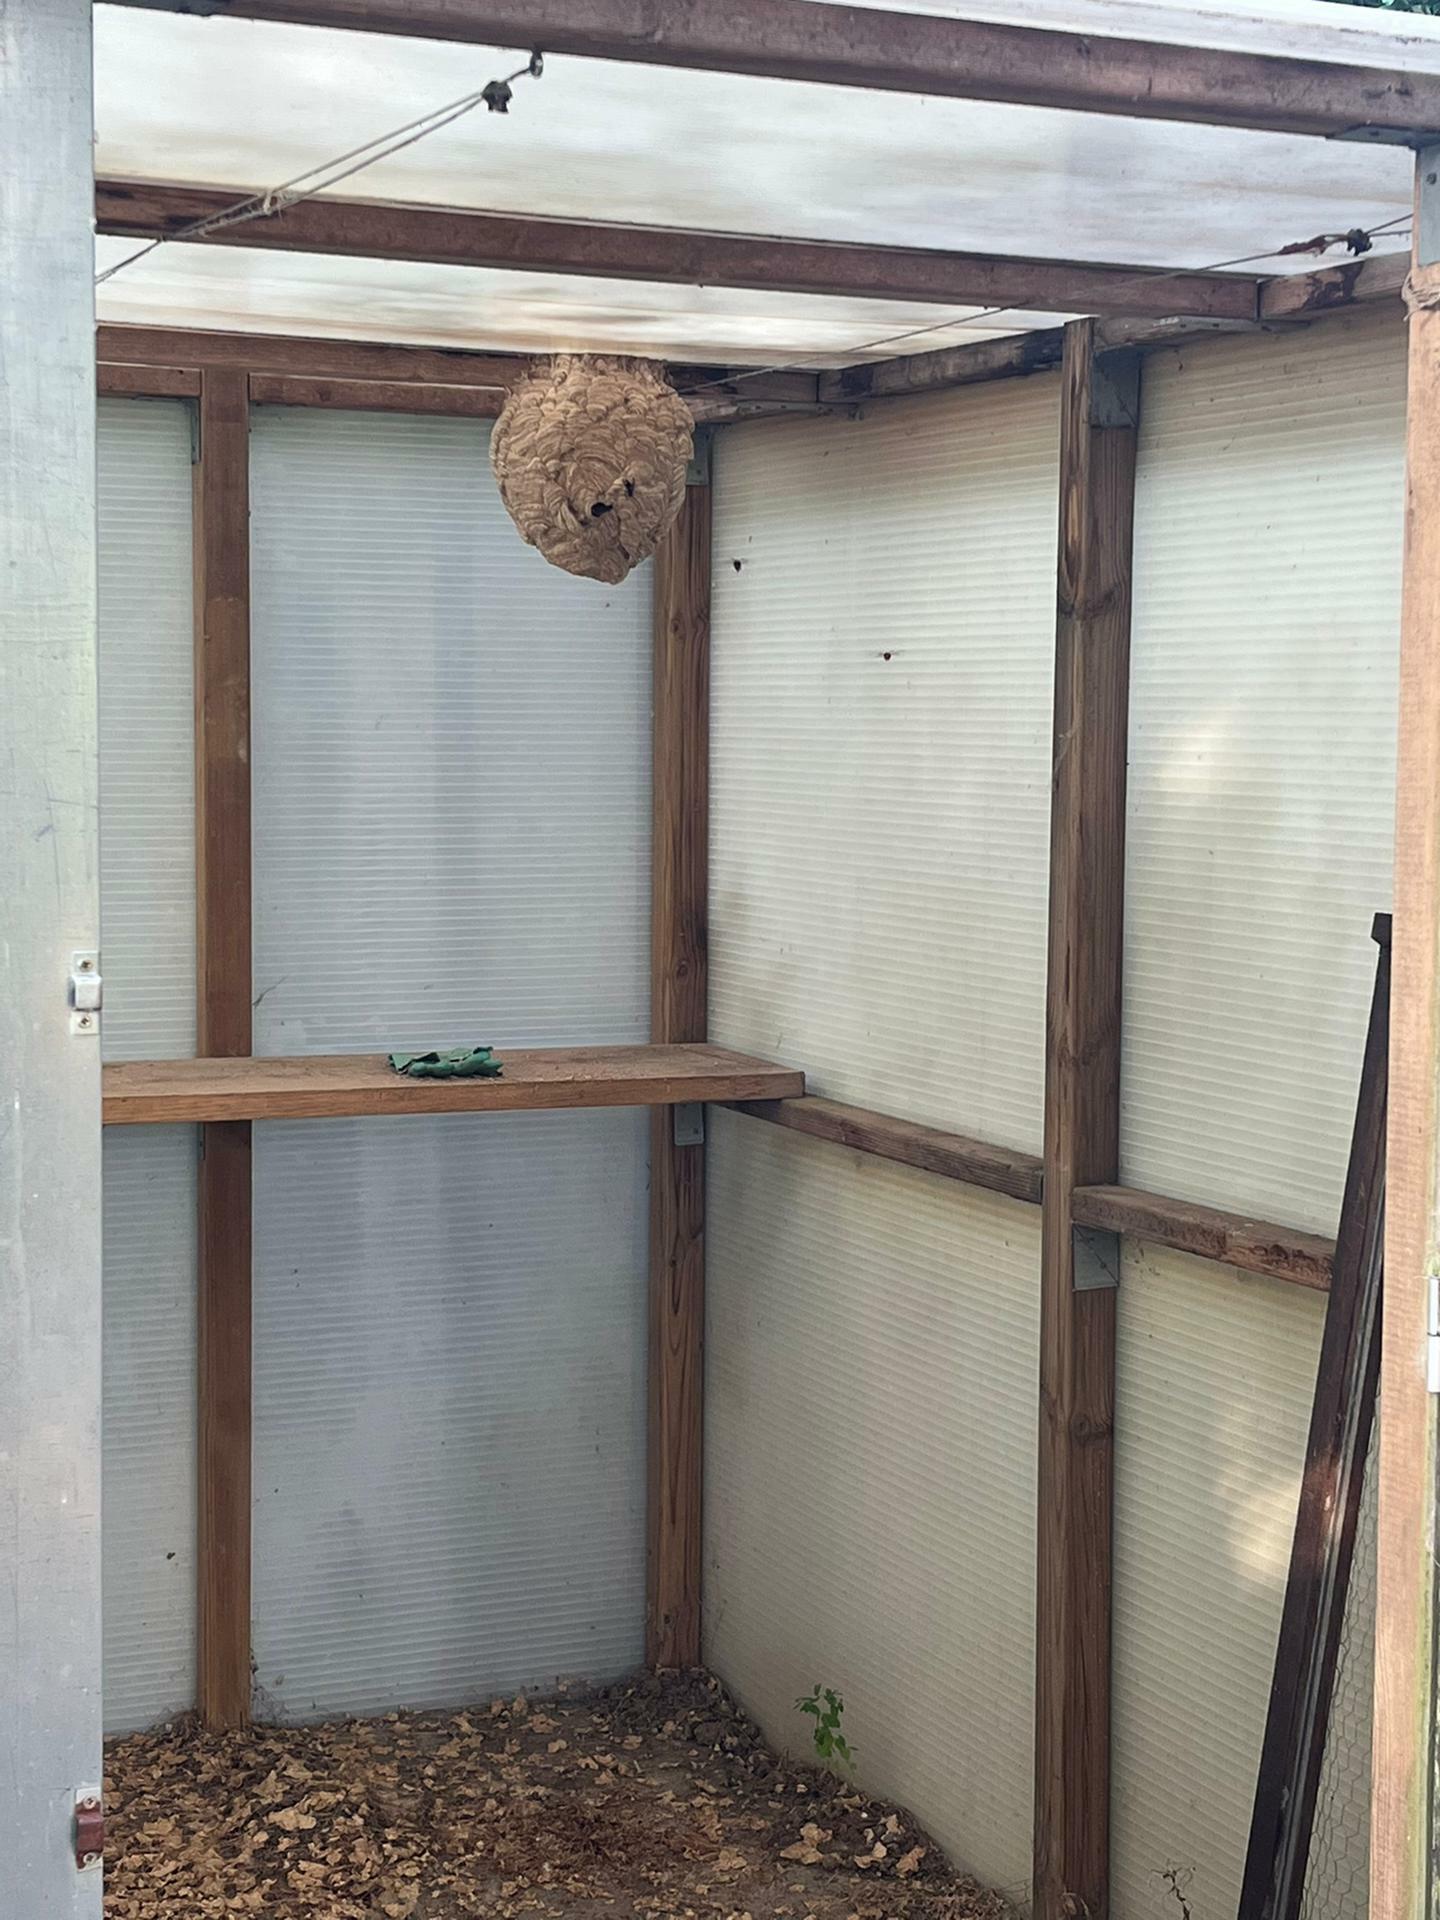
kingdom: Animalia
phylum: Arthropoda
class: Insecta
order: Hymenoptera
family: Vespidae
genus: Vespa
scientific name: Vespa velutina
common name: Asian hornet
